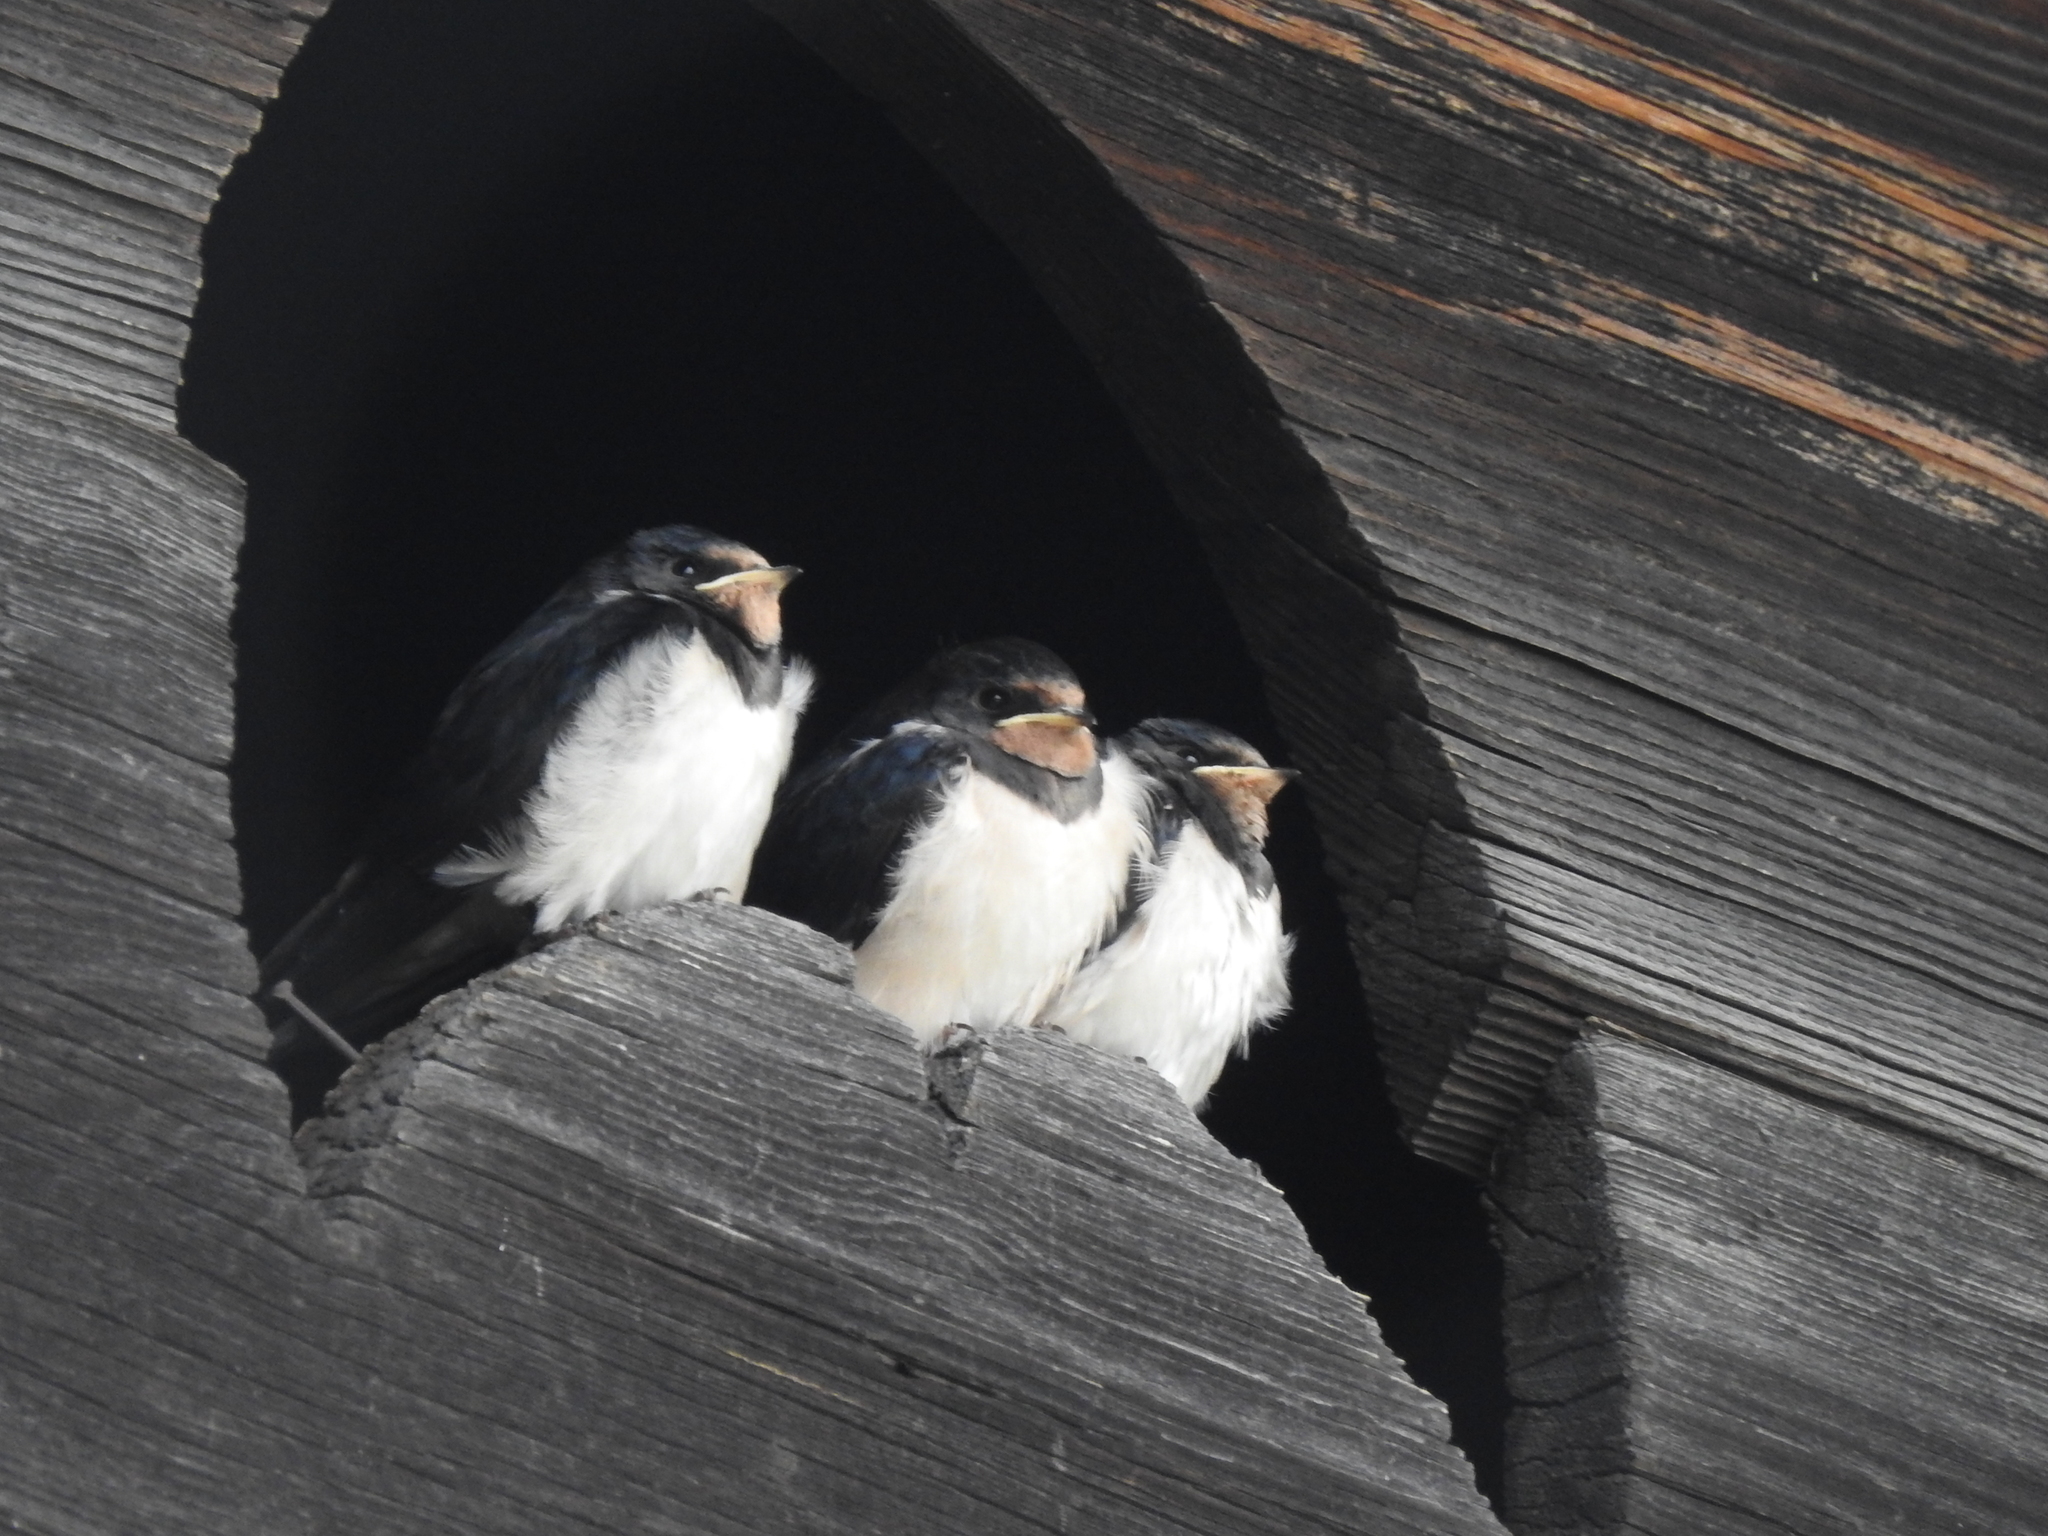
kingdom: Animalia
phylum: Chordata
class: Aves
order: Passeriformes
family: Hirundinidae
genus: Hirundo
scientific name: Hirundo rustica
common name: Barn swallow
